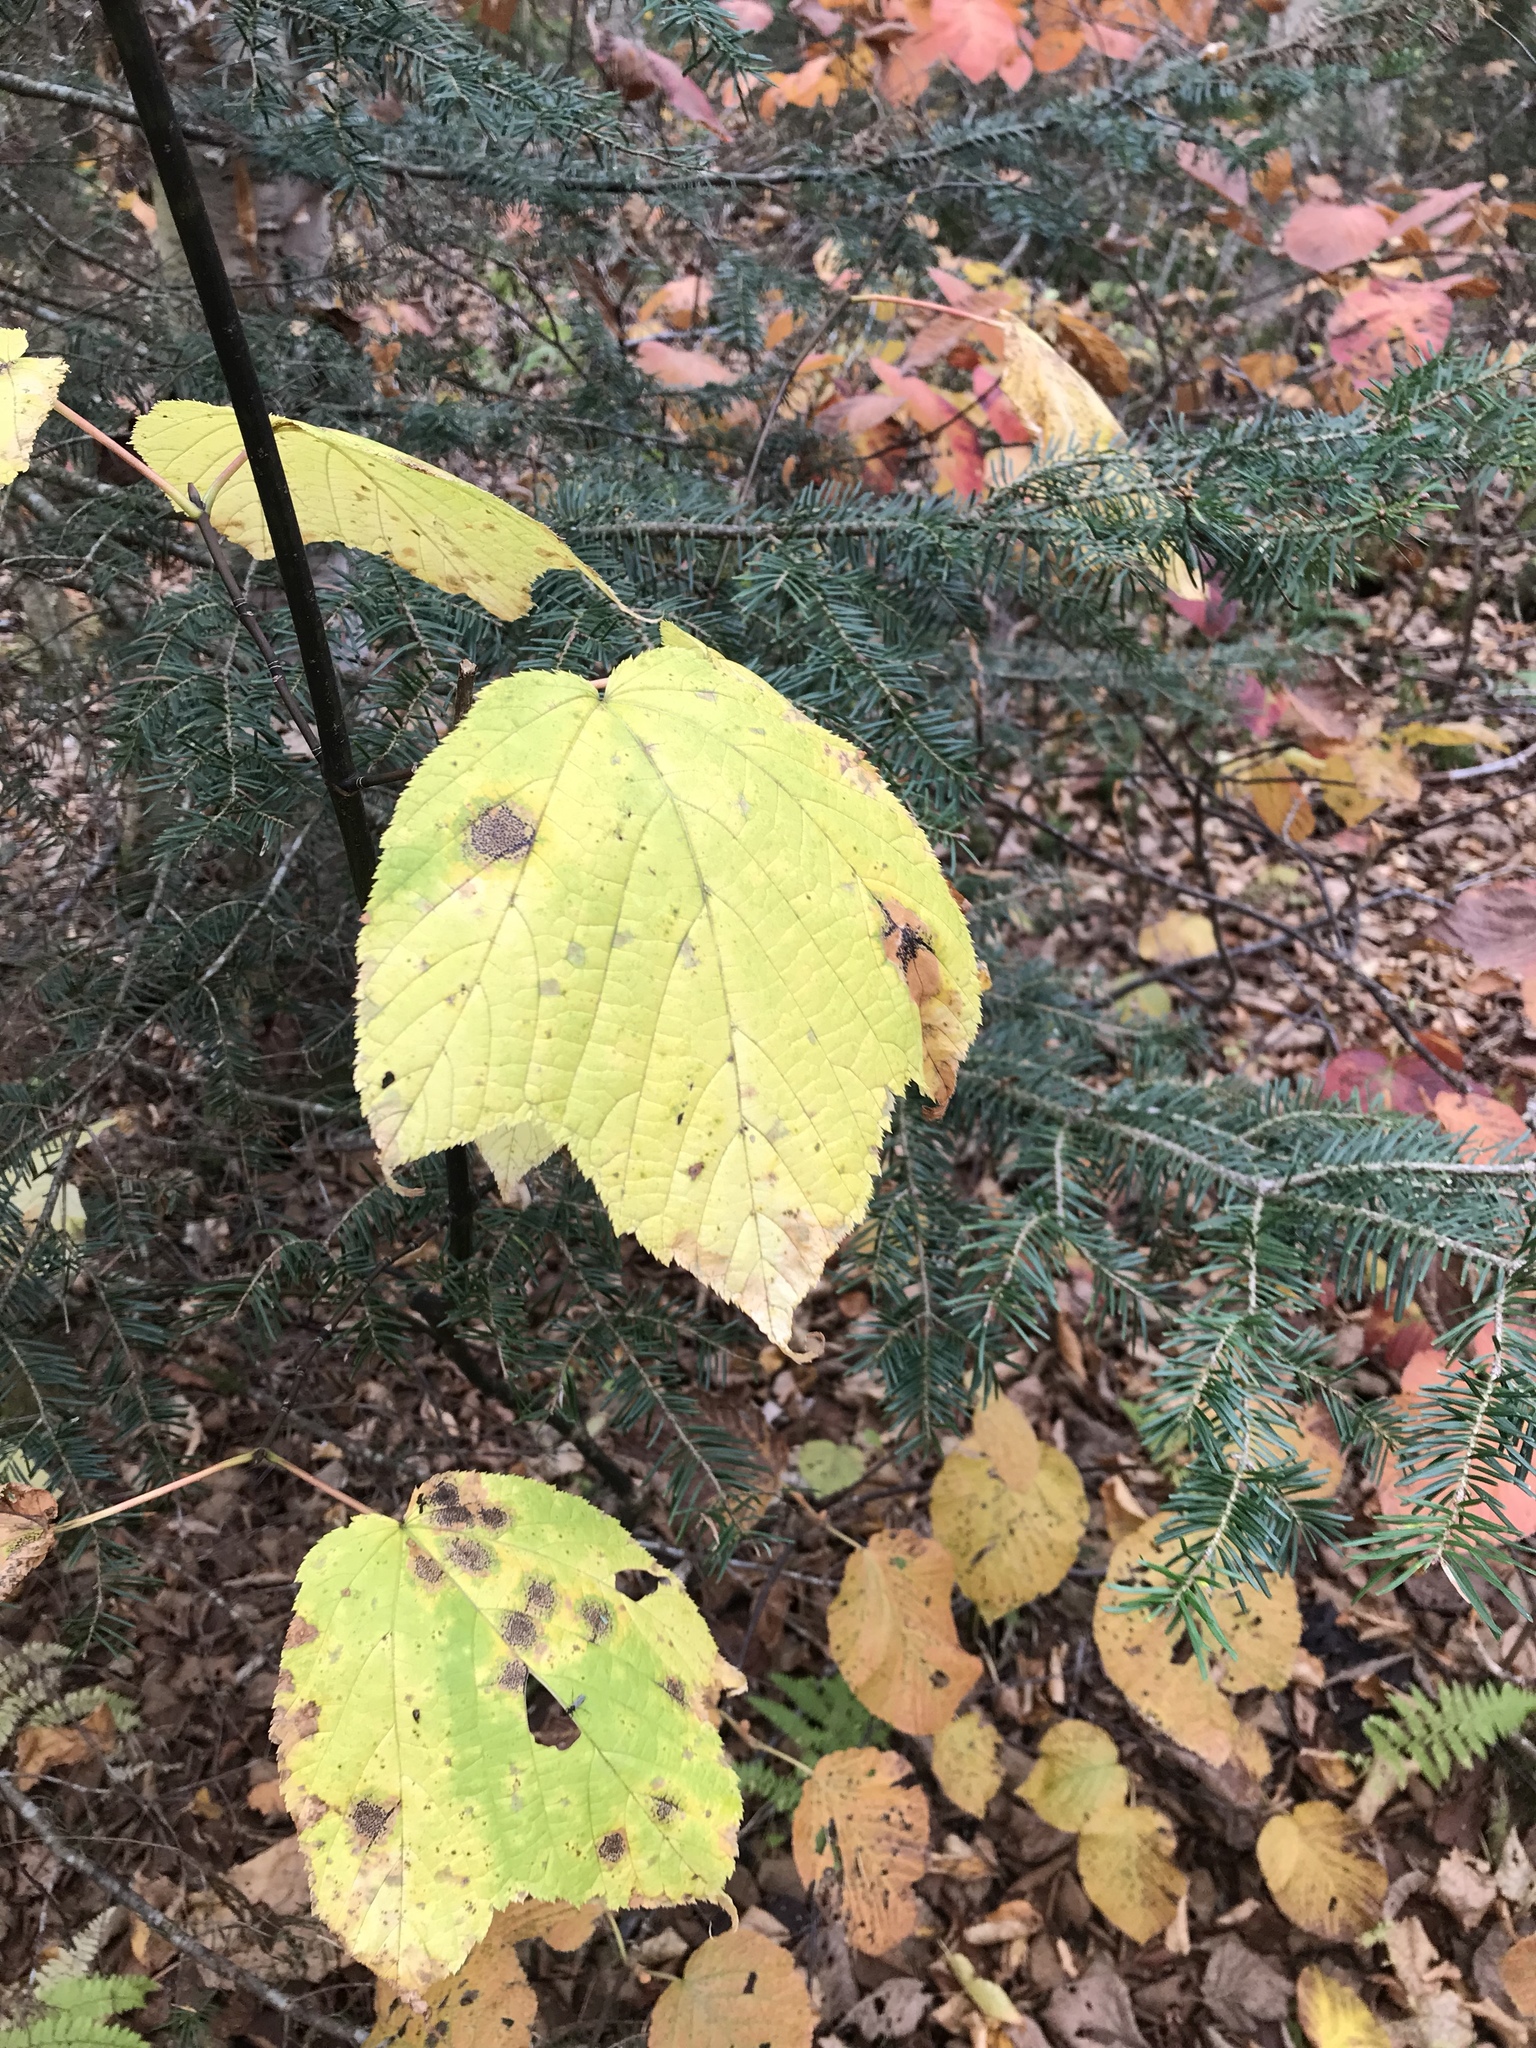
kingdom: Plantae
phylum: Tracheophyta
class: Magnoliopsida
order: Sapindales
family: Sapindaceae
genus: Acer
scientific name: Acer pensylvanicum
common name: Moosewood
